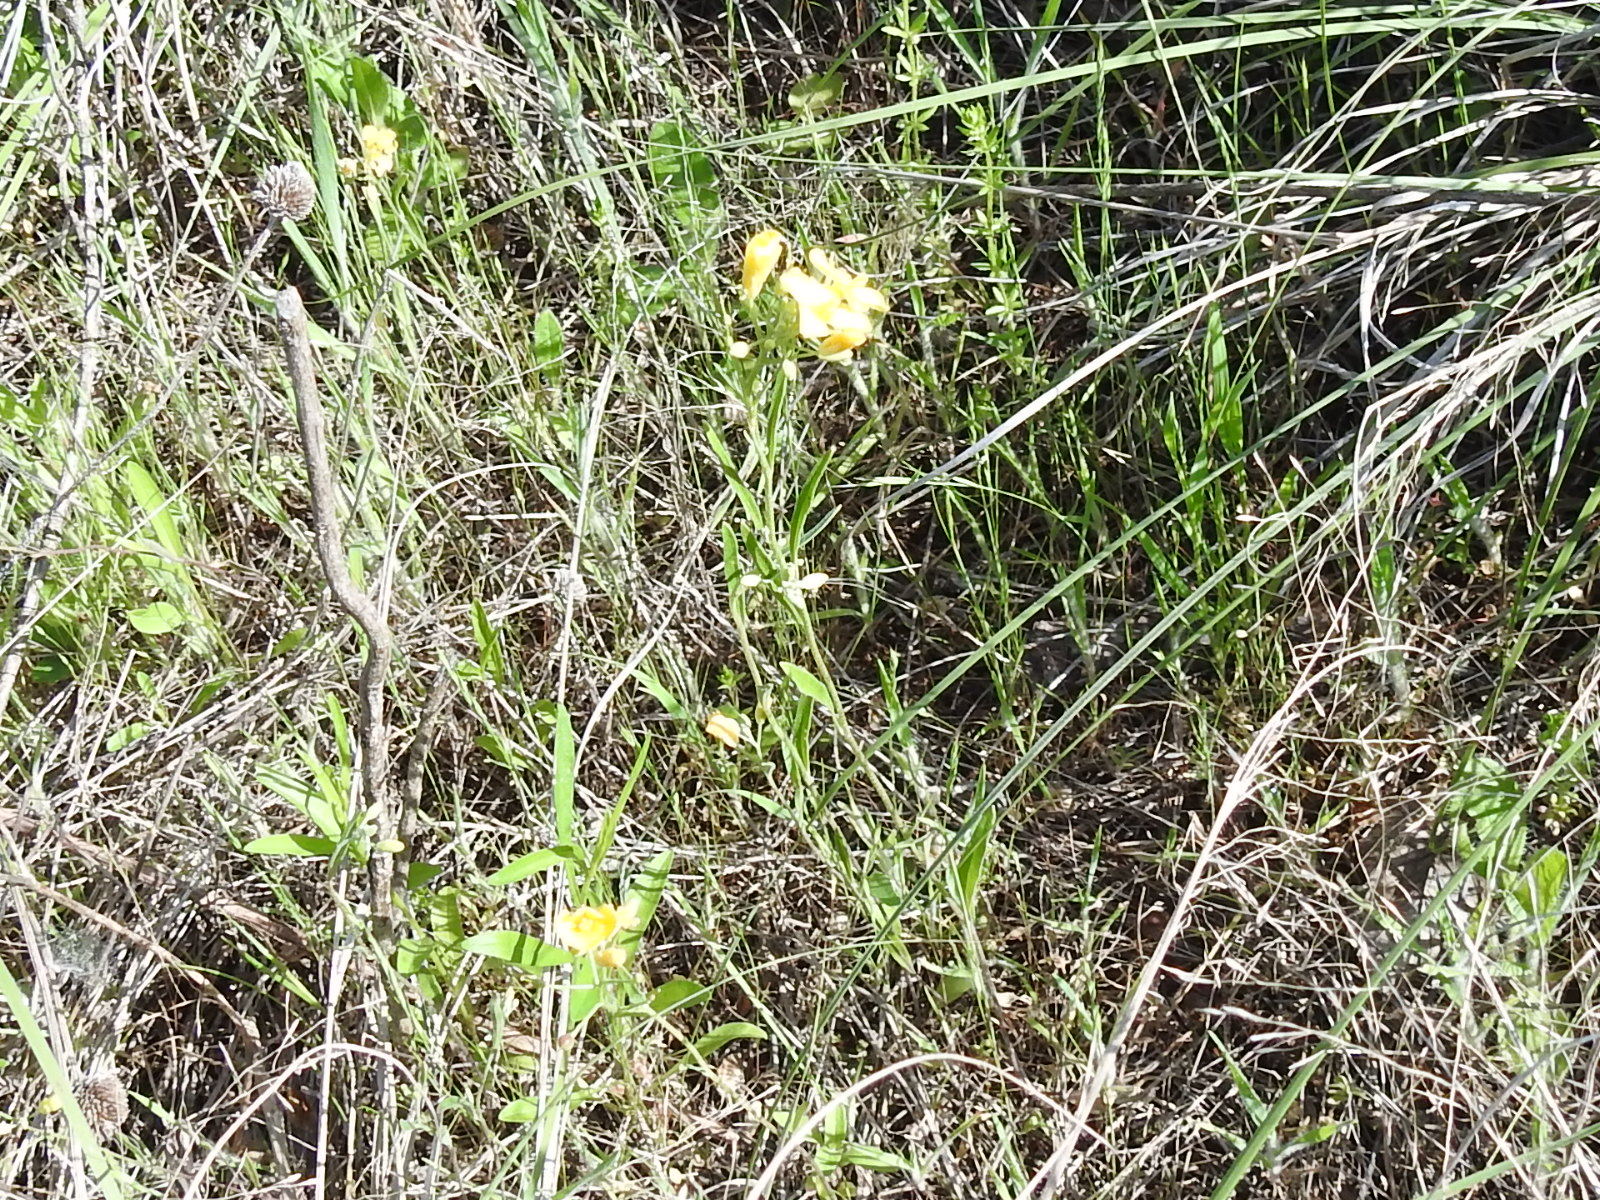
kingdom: Plantae
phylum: Tracheophyta
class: Magnoliopsida
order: Brassicales
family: Brassicaceae
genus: Physaria
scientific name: Physaria gracilis
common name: Spreading bladderpod
